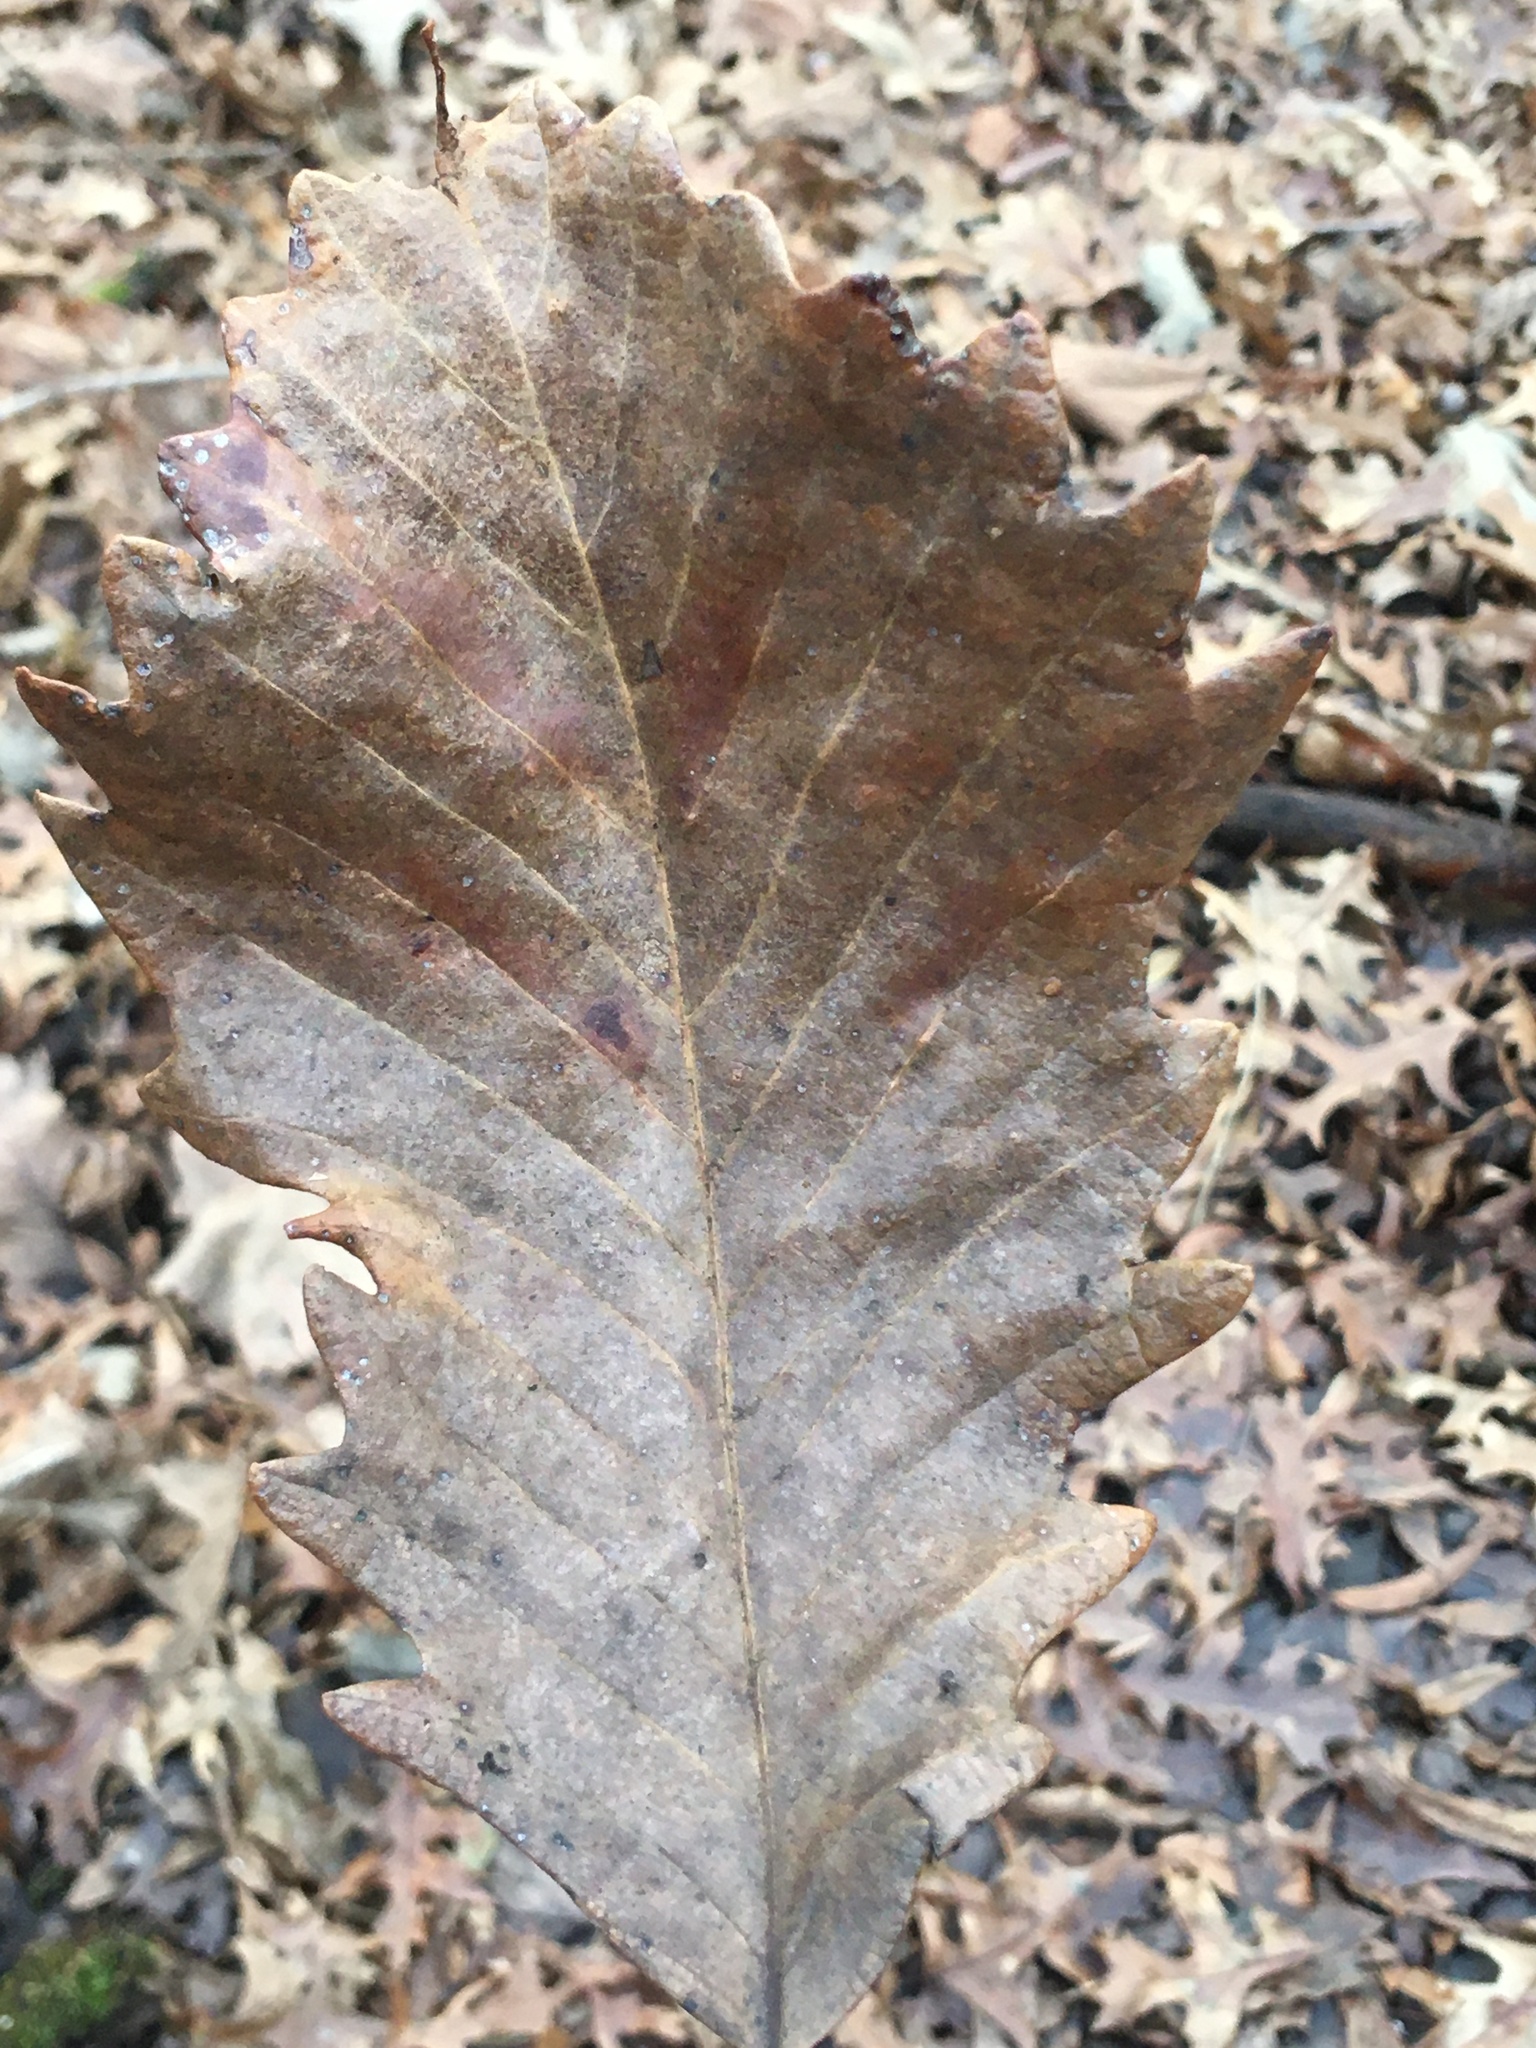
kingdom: Plantae
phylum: Tracheophyta
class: Magnoliopsida
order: Fagales
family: Fagaceae
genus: Quercus
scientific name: Quercus michauxii
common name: Swamp chestnut oak
